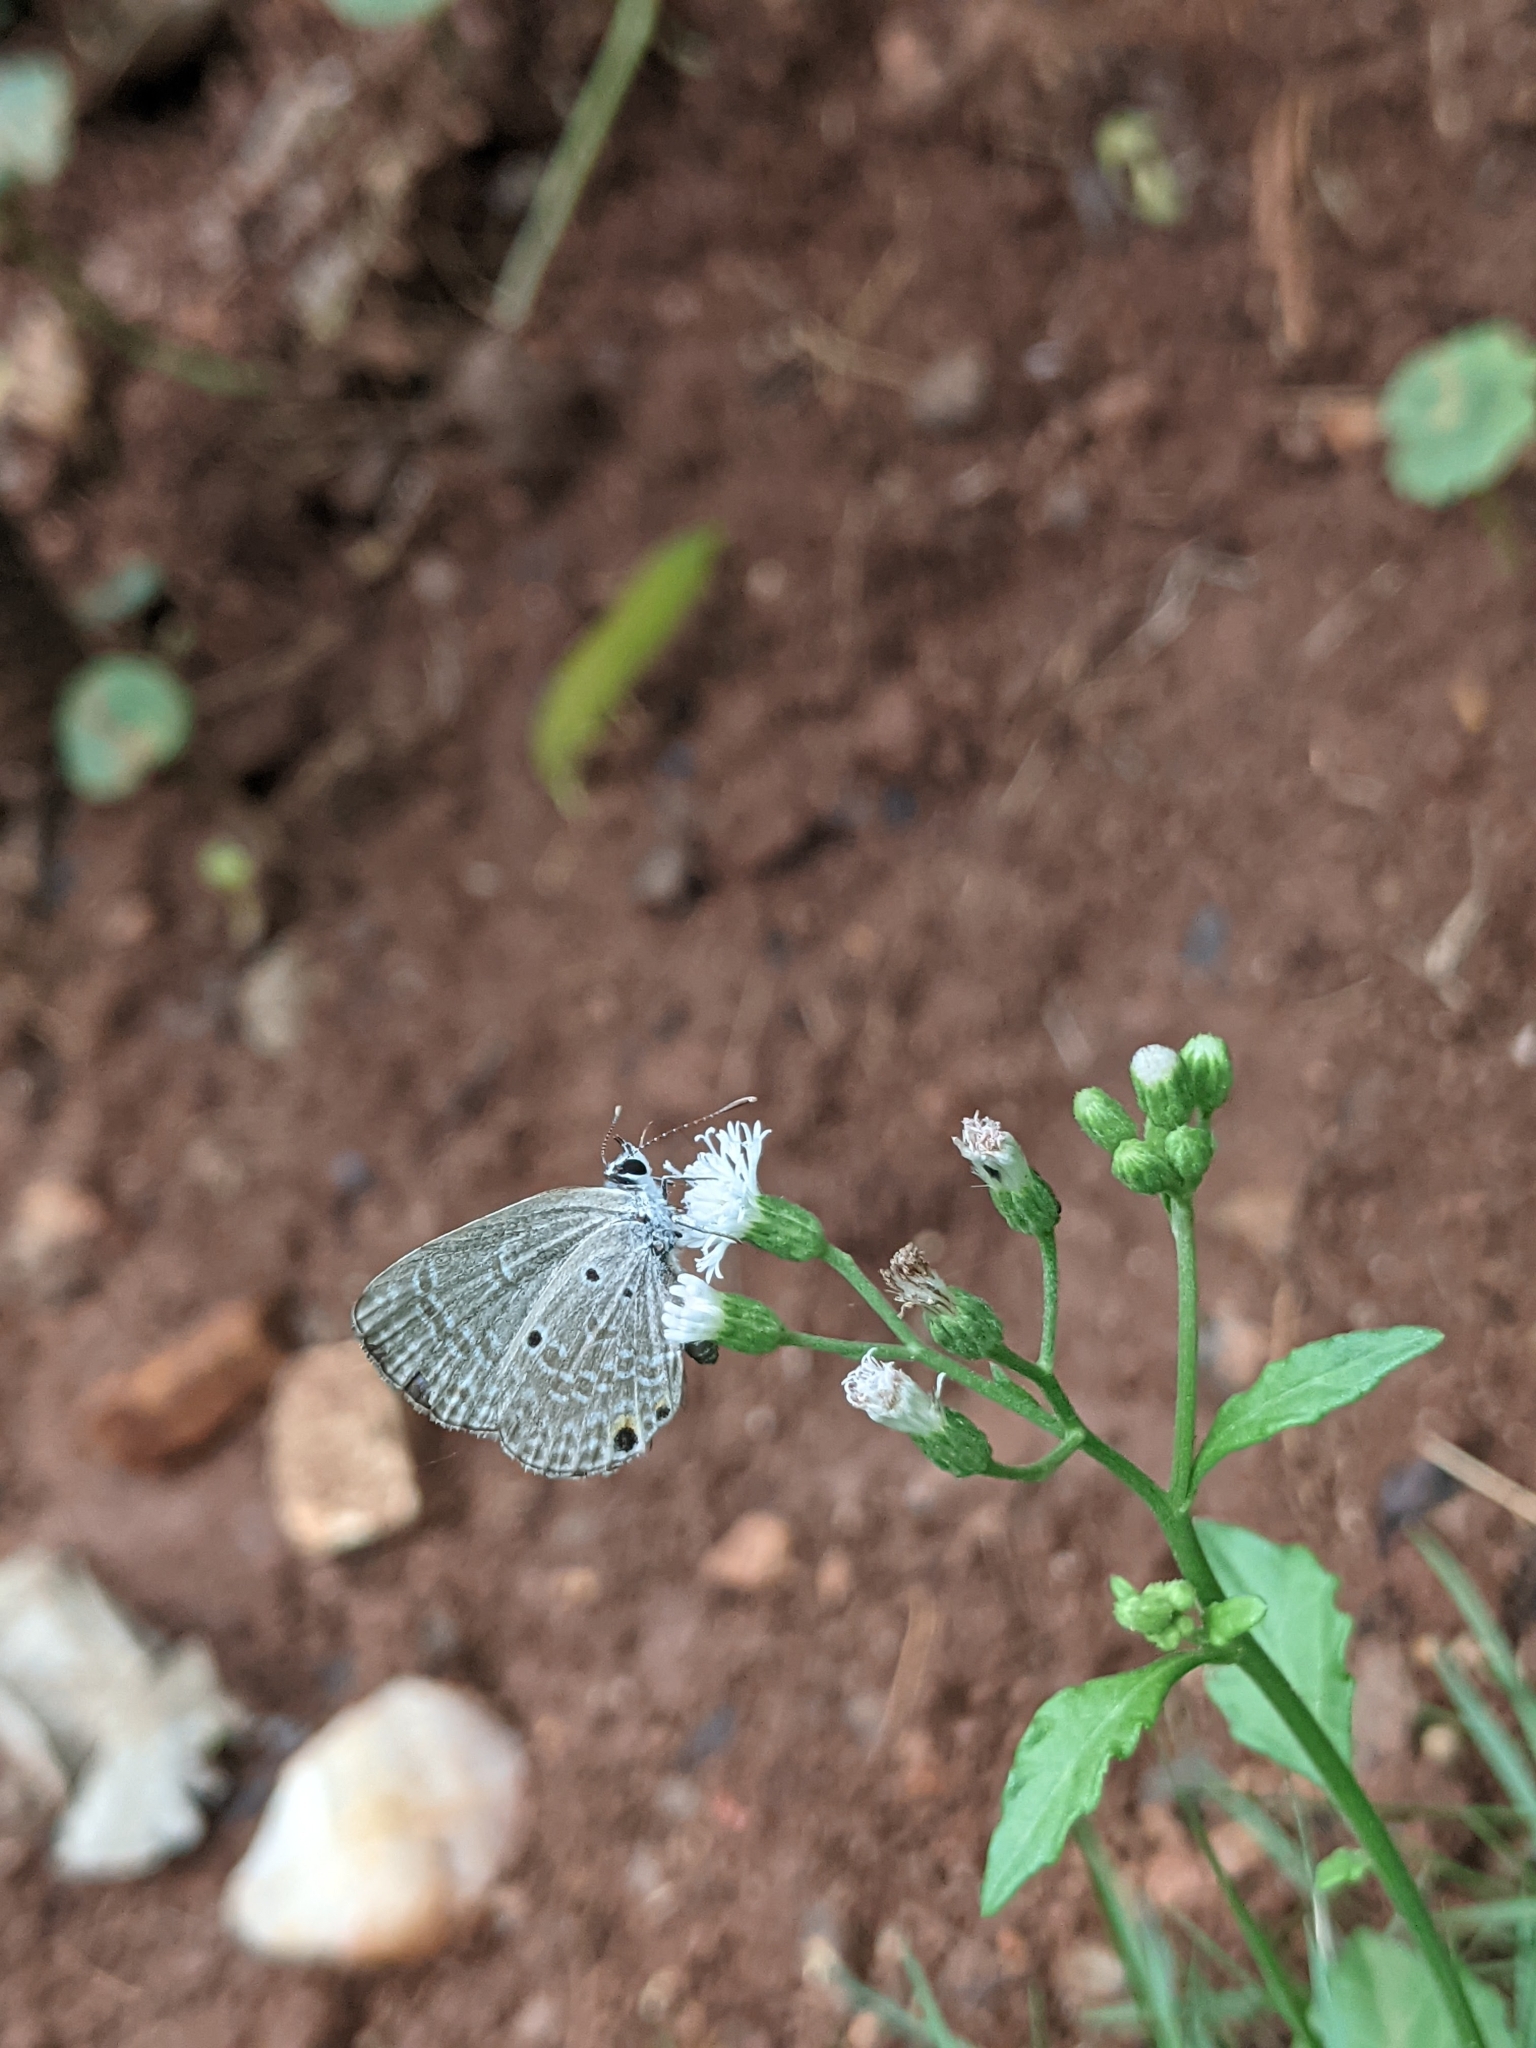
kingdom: Animalia
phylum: Arthropoda
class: Insecta
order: Lepidoptera
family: Lycaenidae
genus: Luthrodes
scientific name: Luthrodes pandava
